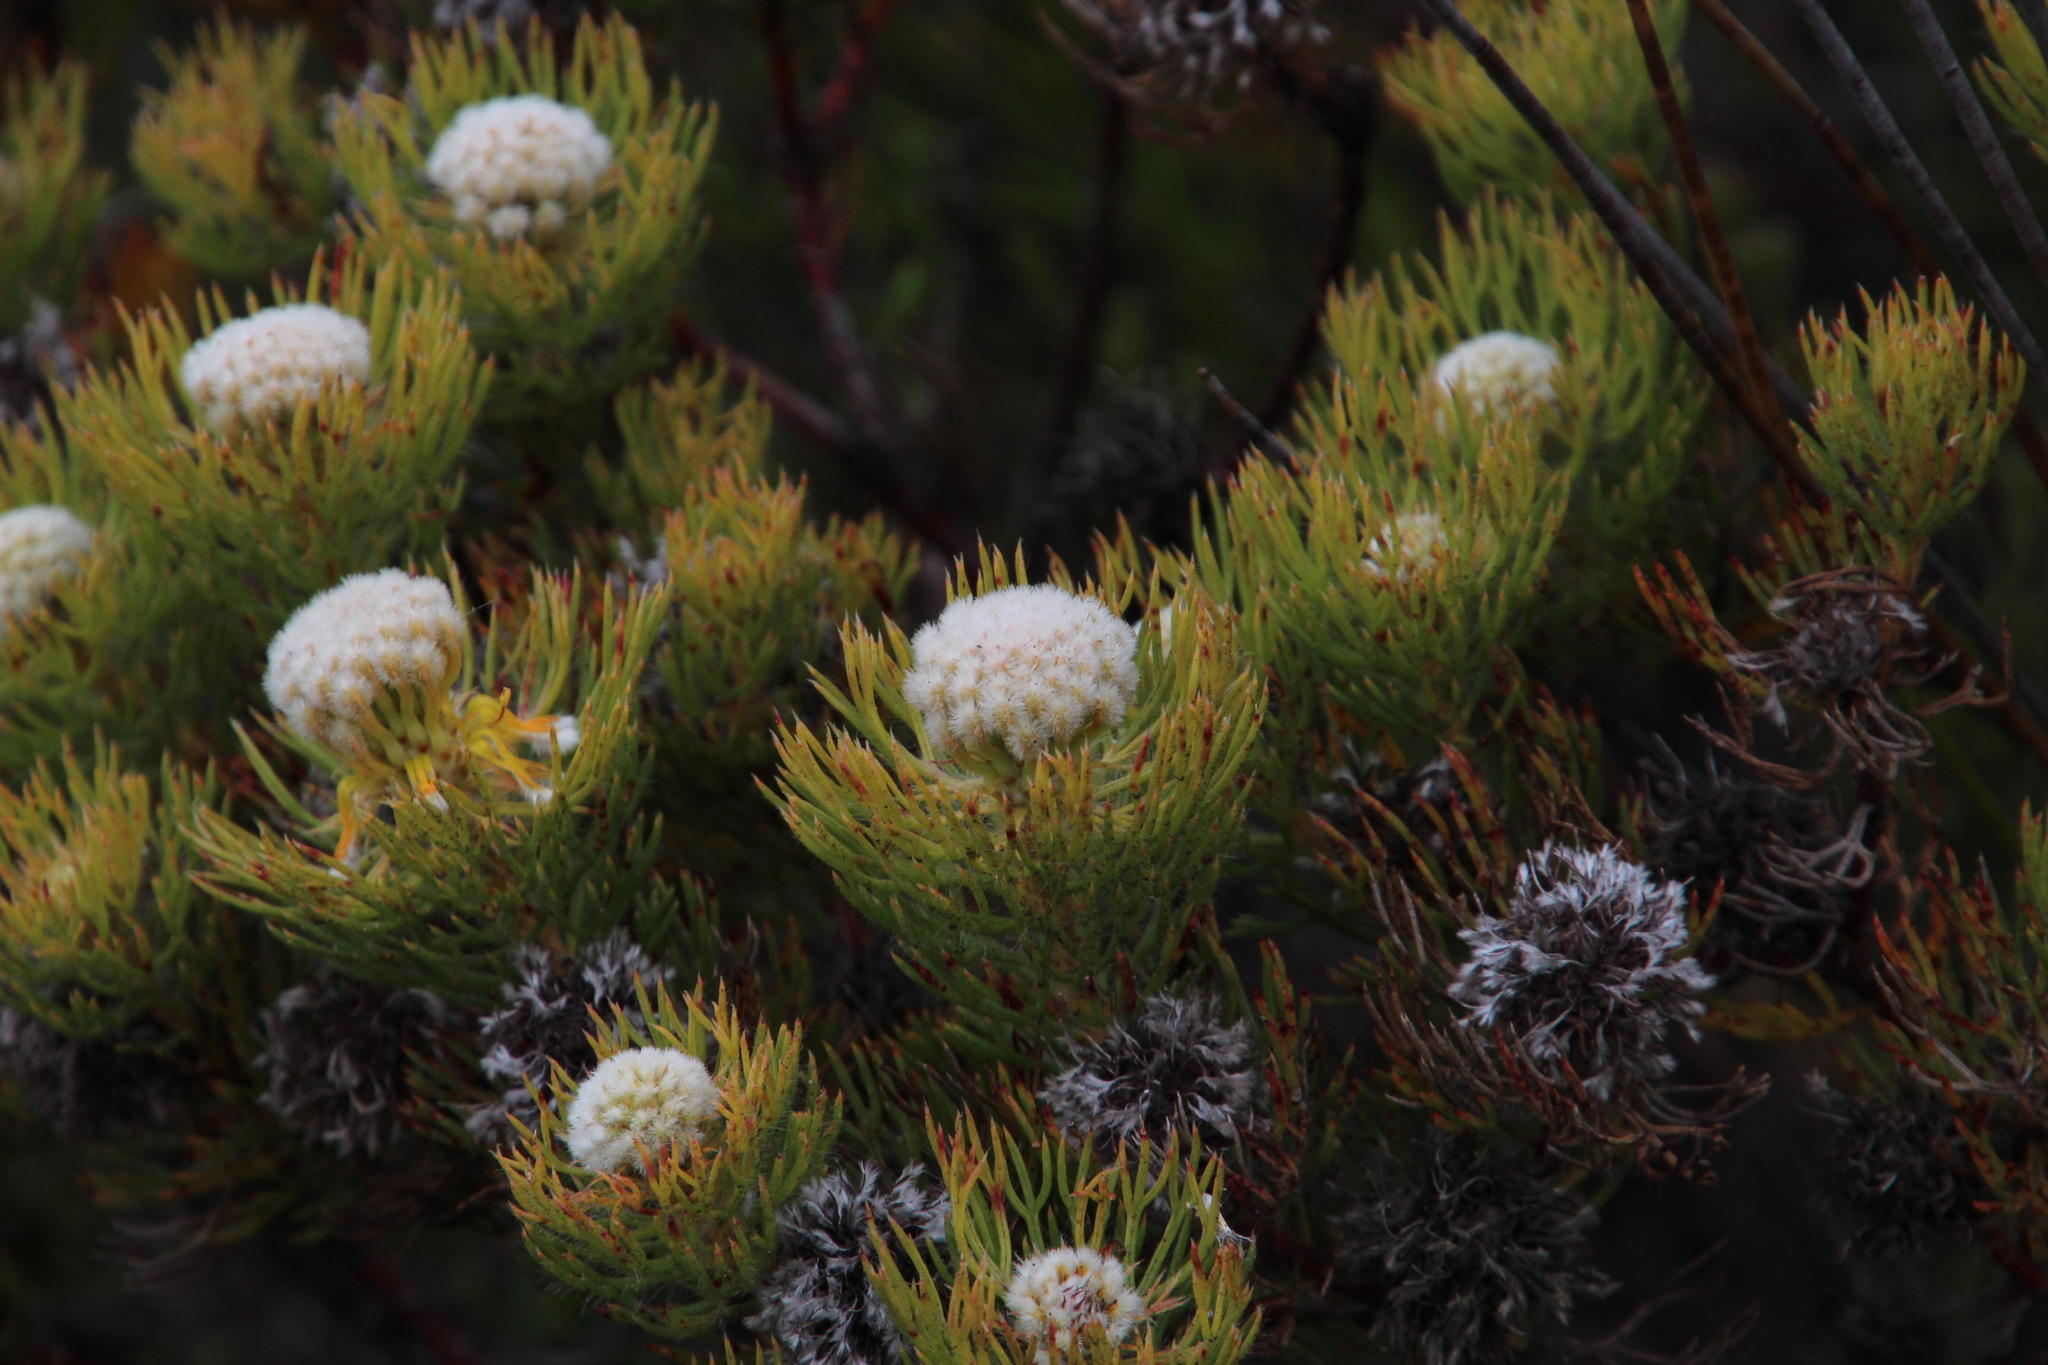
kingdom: Plantae
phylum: Tracheophyta
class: Magnoliopsida
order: Proteales
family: Proteaceae
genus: Serruria
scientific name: Serruria villosa
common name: Golden spiderhead
